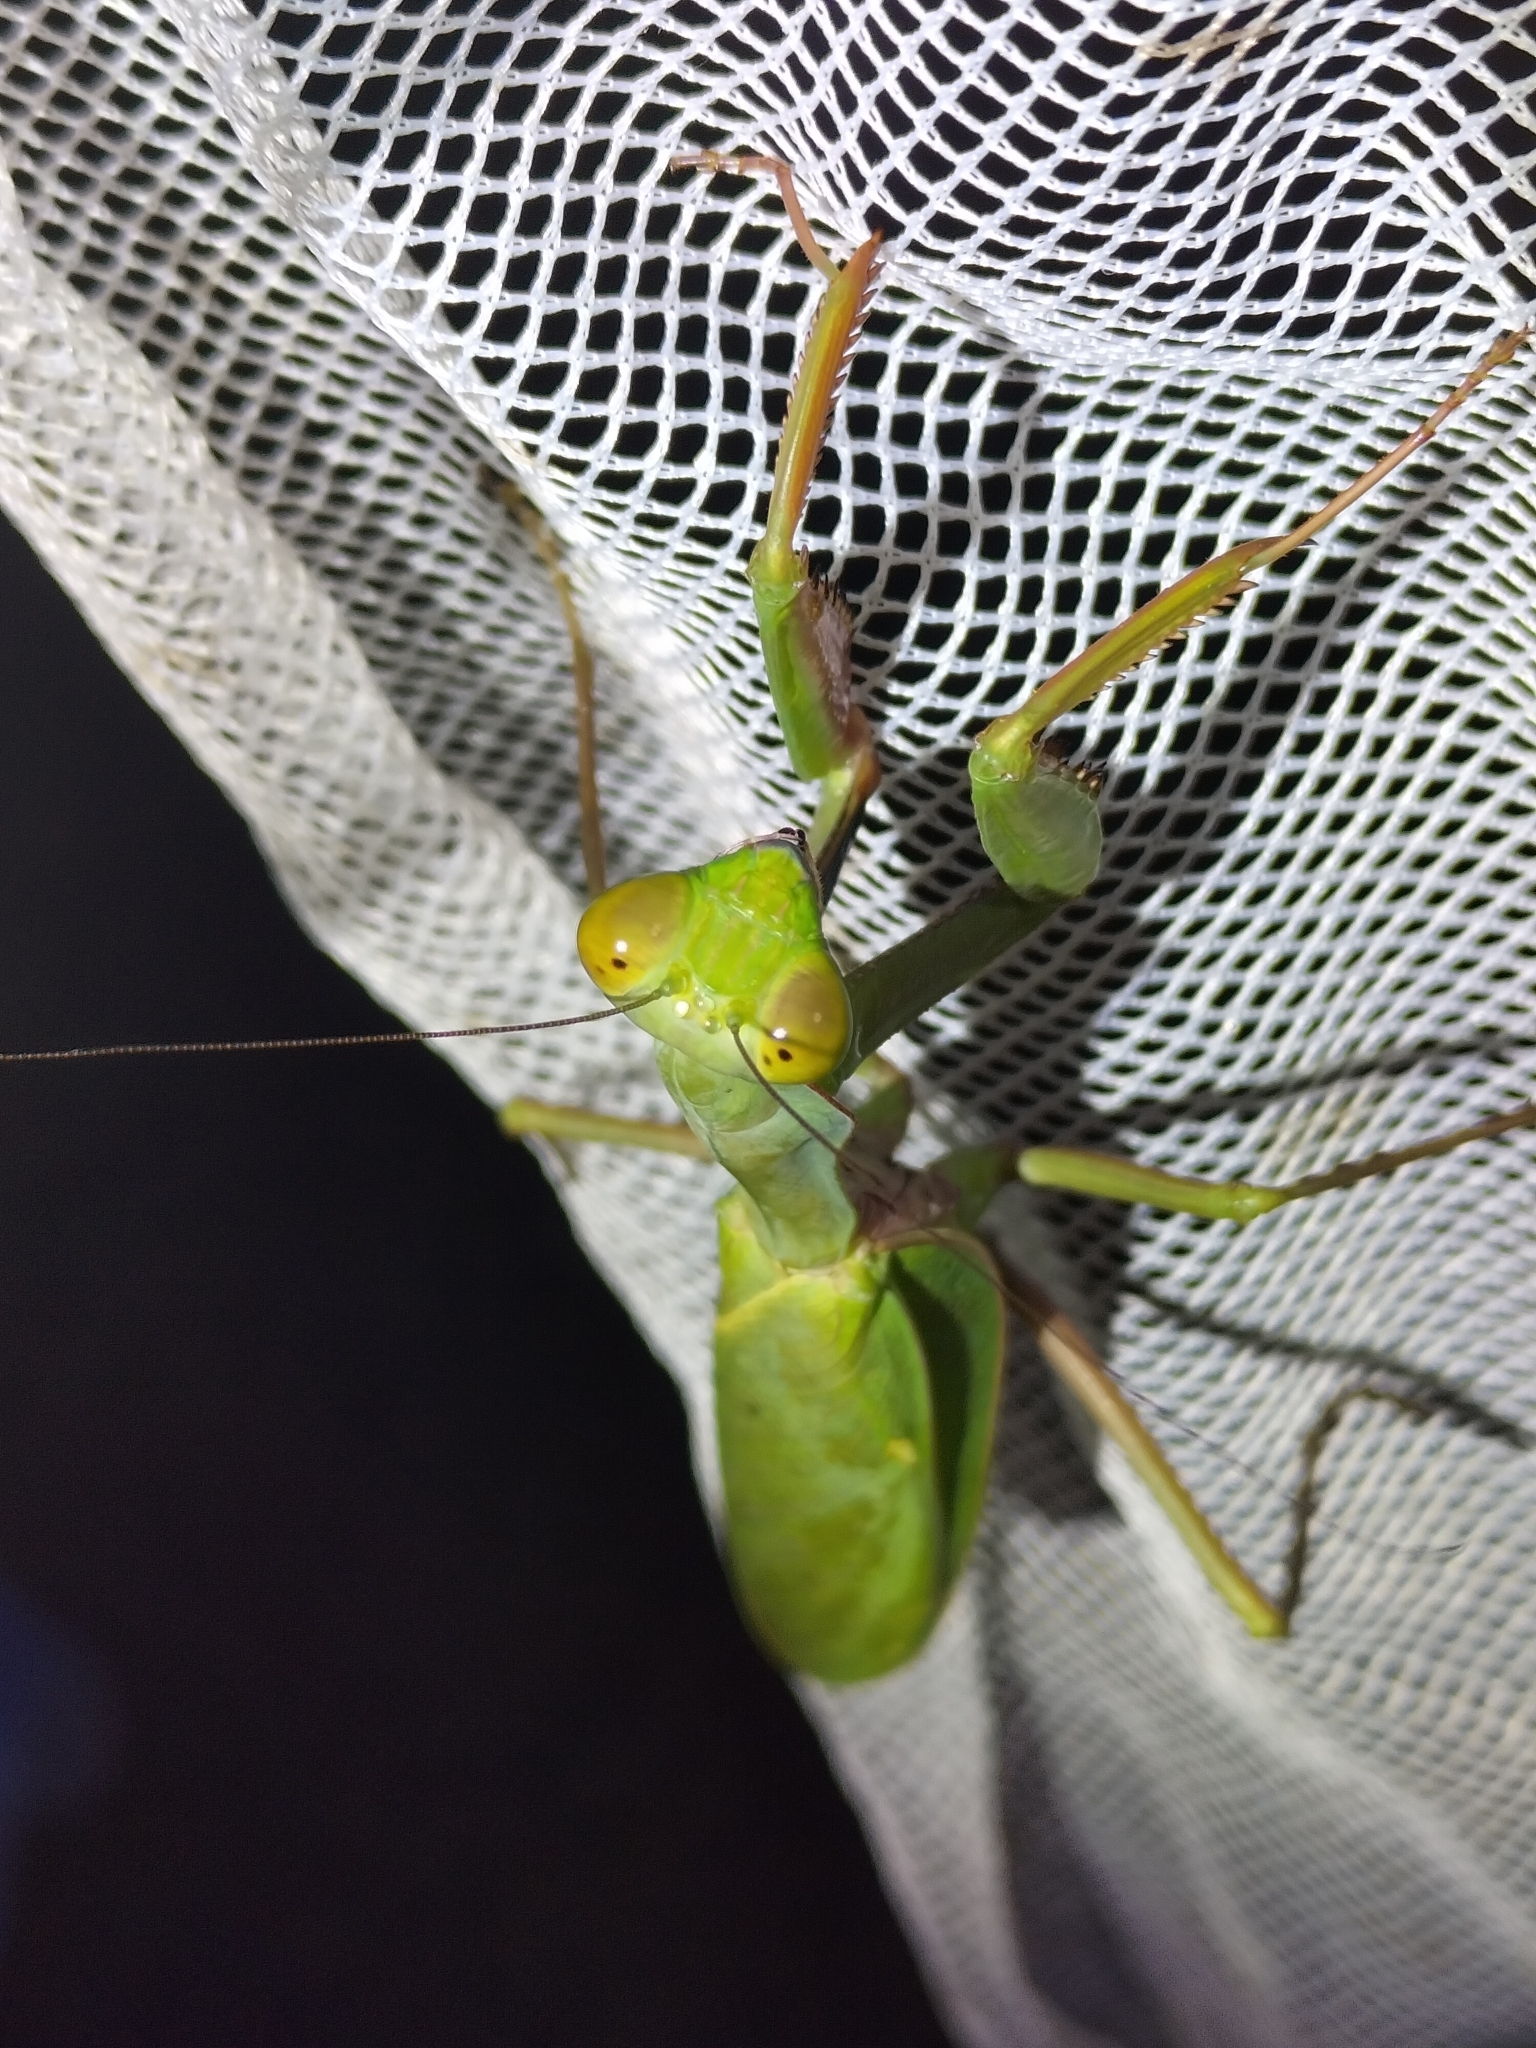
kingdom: Animalia
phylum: Arthropoda
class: Insecta
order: Mantodea
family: Mantidae
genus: Hierodula
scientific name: Hierodula majuscula
